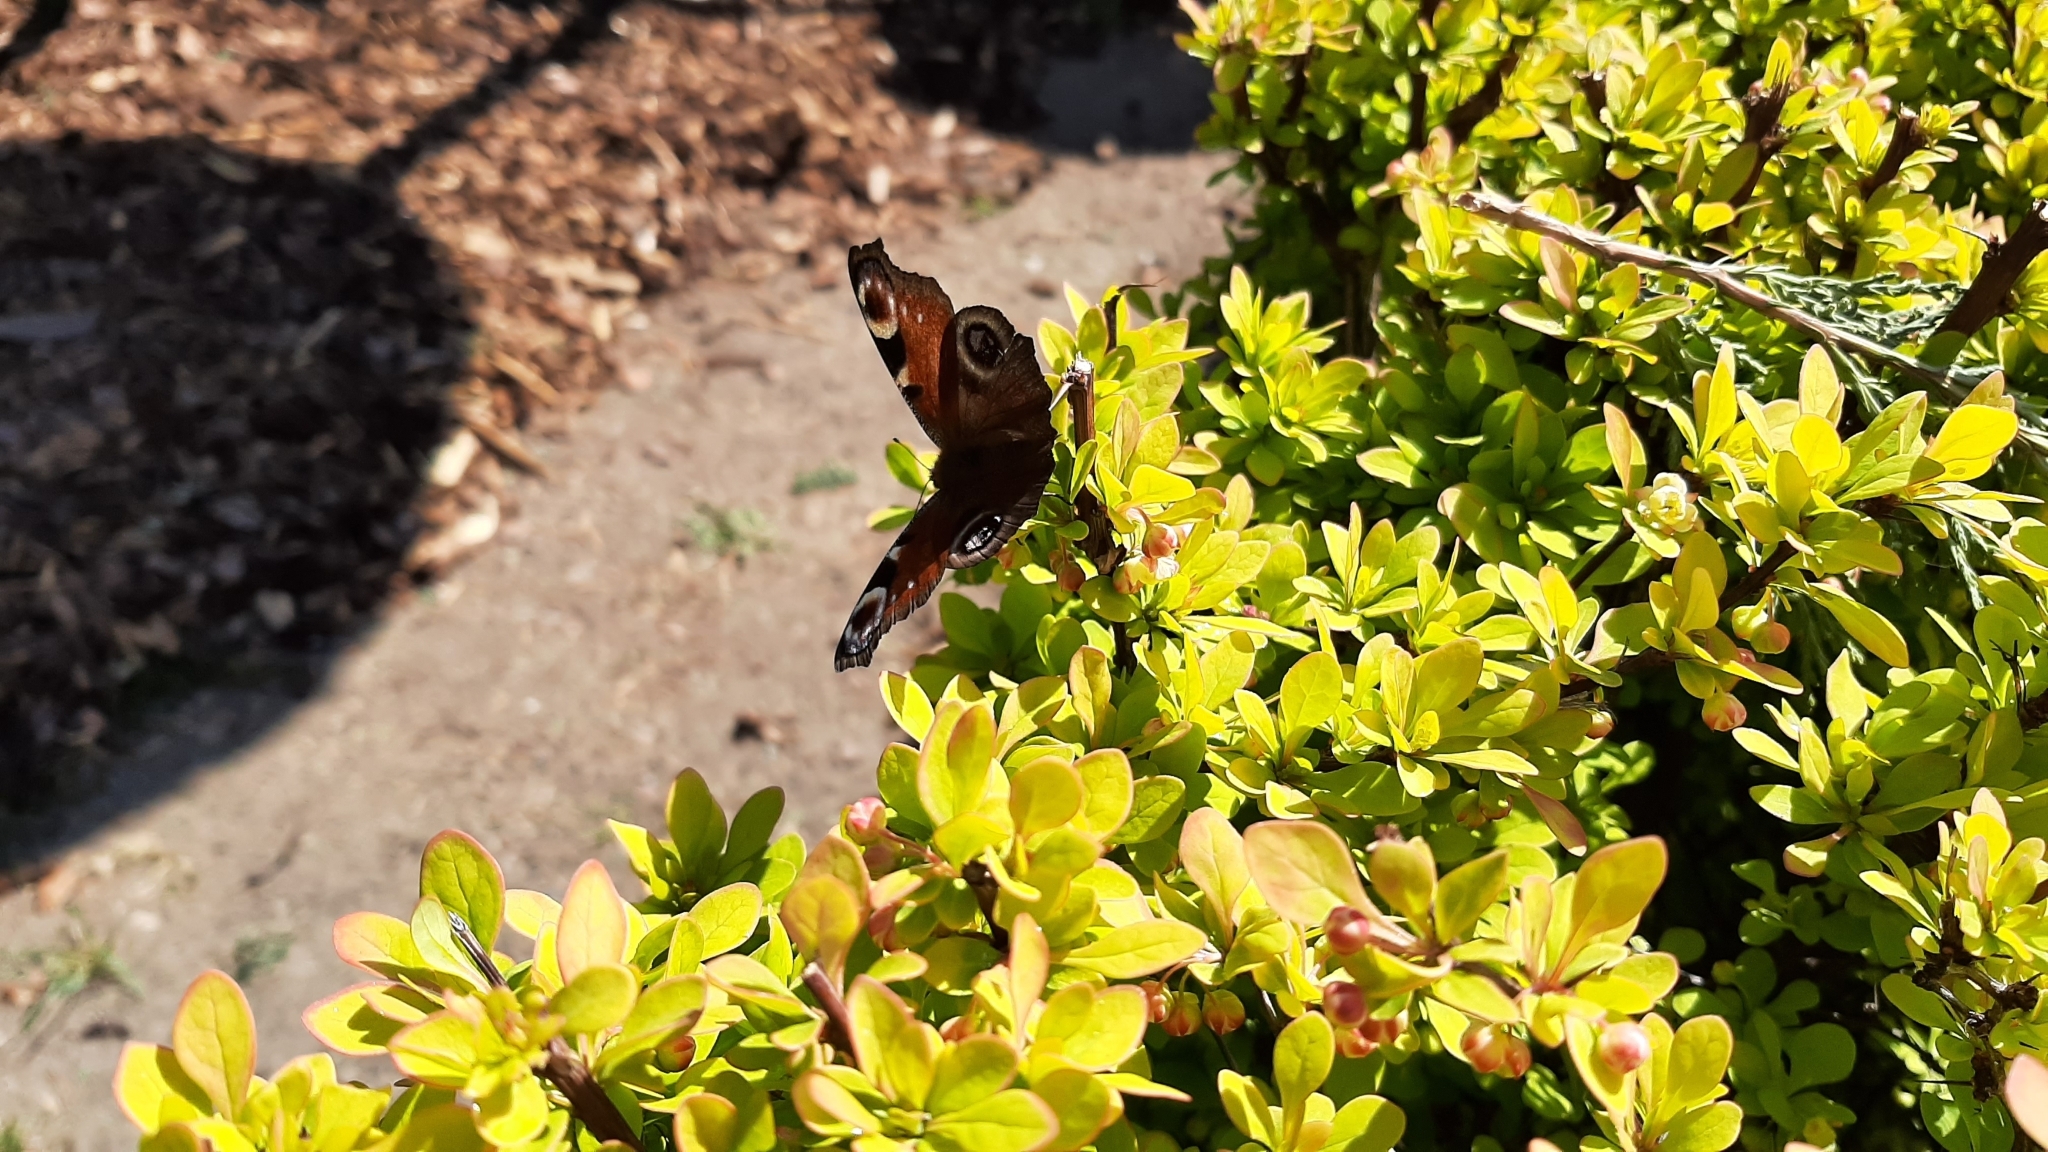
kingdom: Animalia
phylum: Arthropoda
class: Insecta
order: Lepidoptera
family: Nymphalidae
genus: Aglais
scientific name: Aglais io
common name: Peacock
